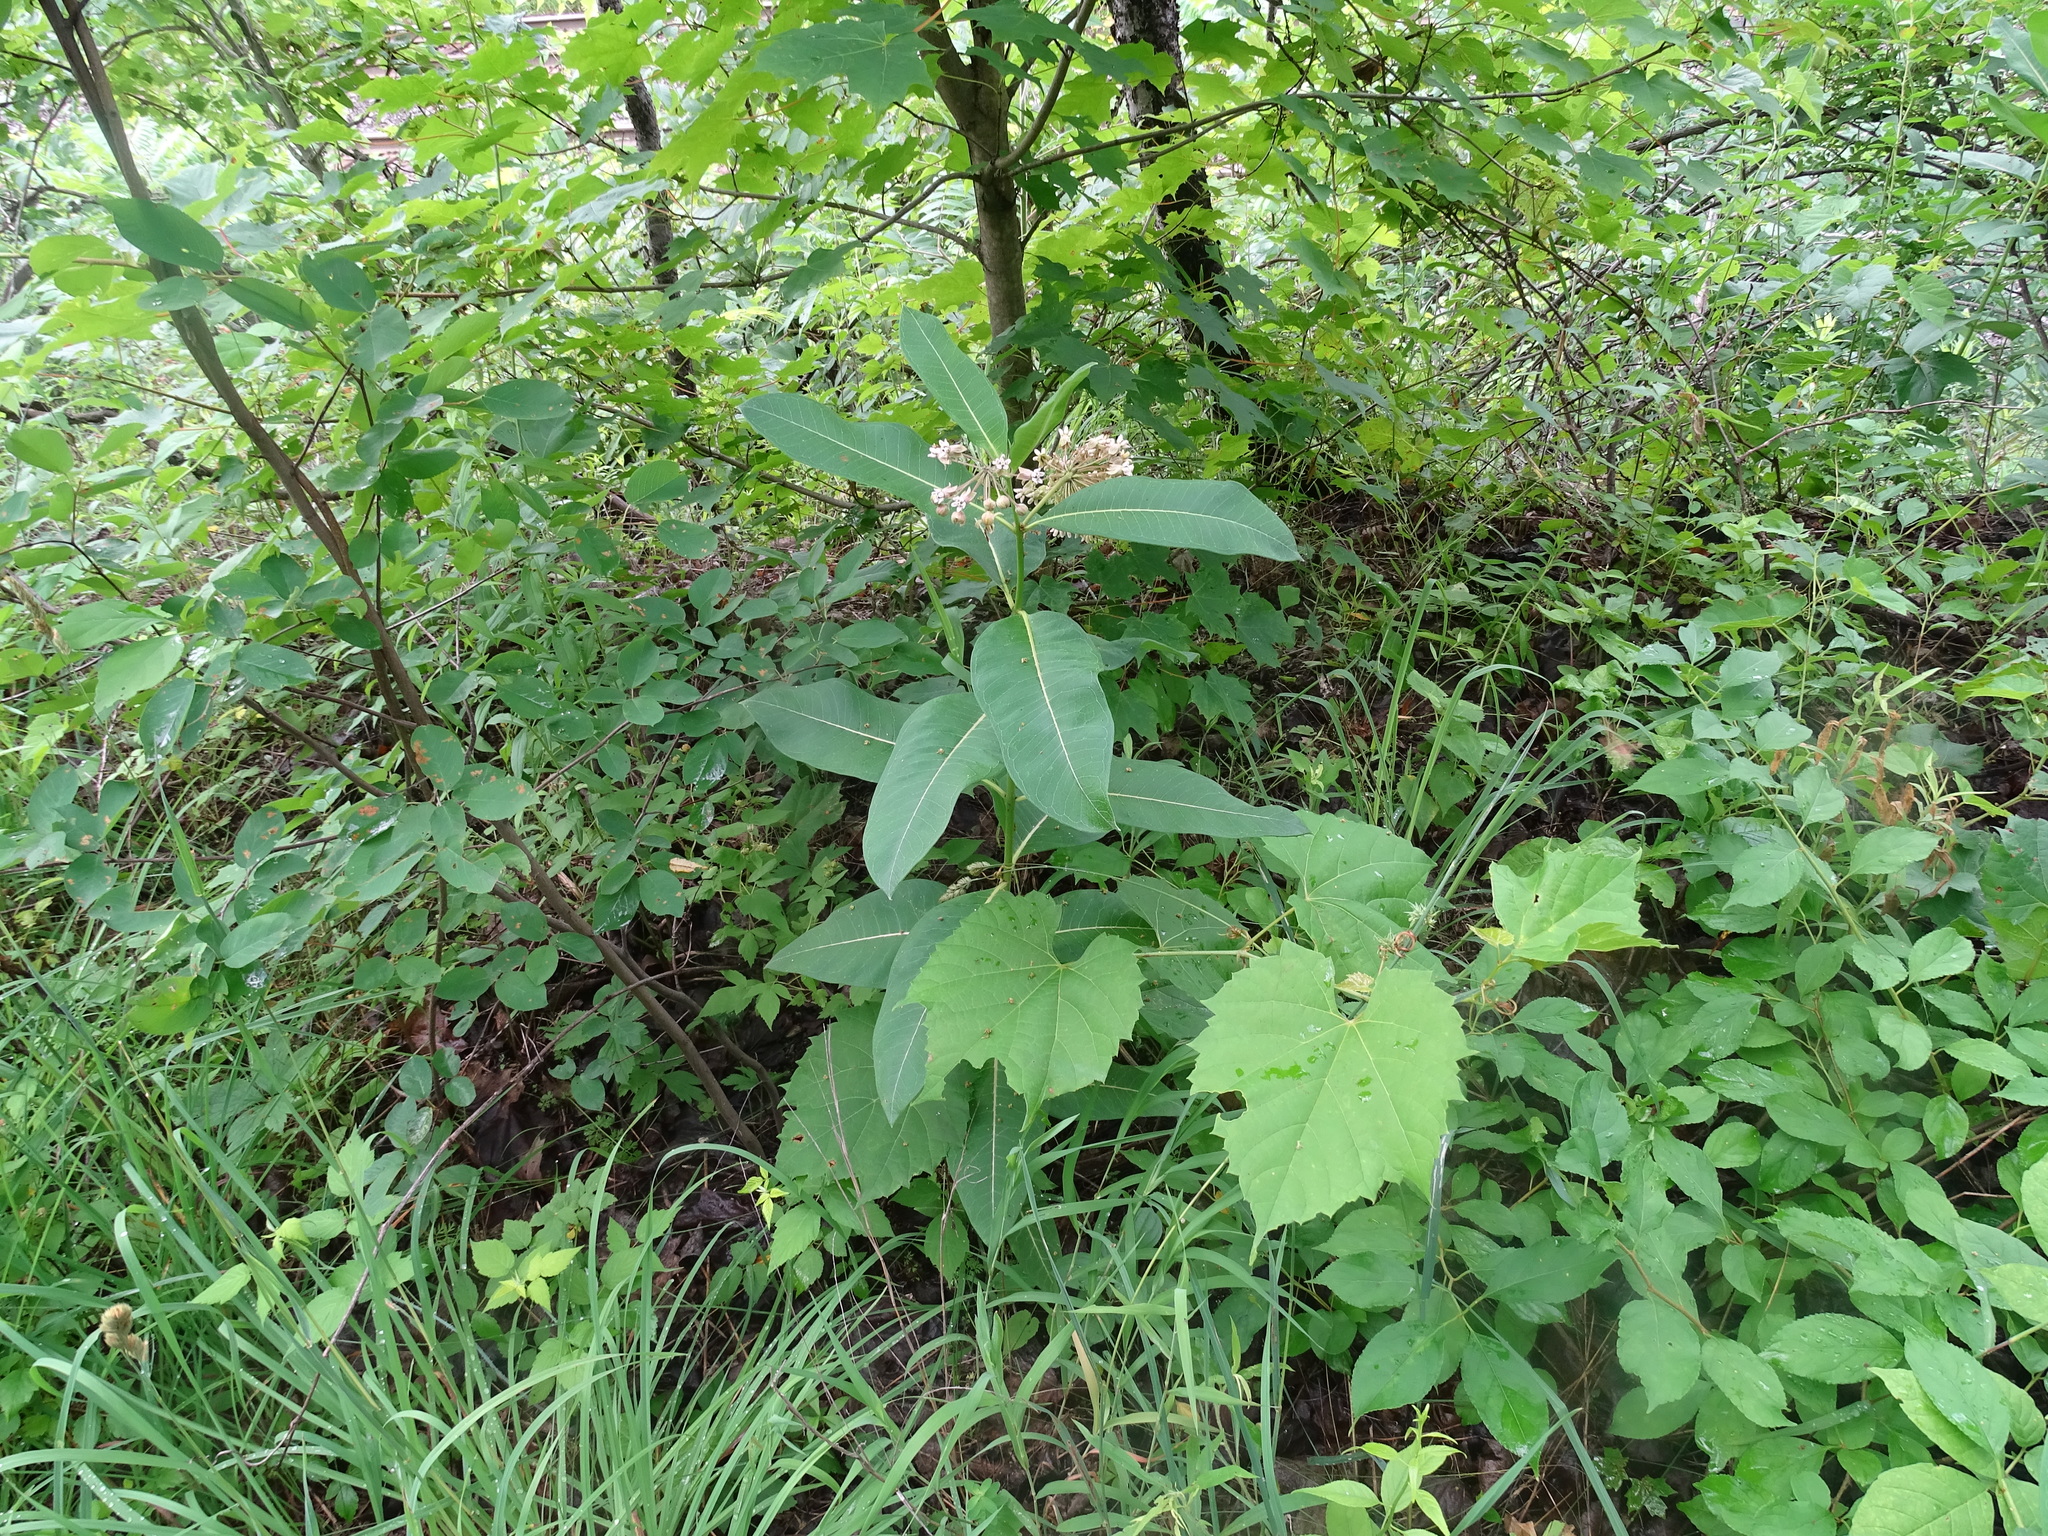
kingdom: Plantae
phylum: Tracheophyta
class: Magnoliopsida
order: Gentianales
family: Apocynaceae
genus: Asclepias
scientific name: Asclepias syriaca
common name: Common milkweed
